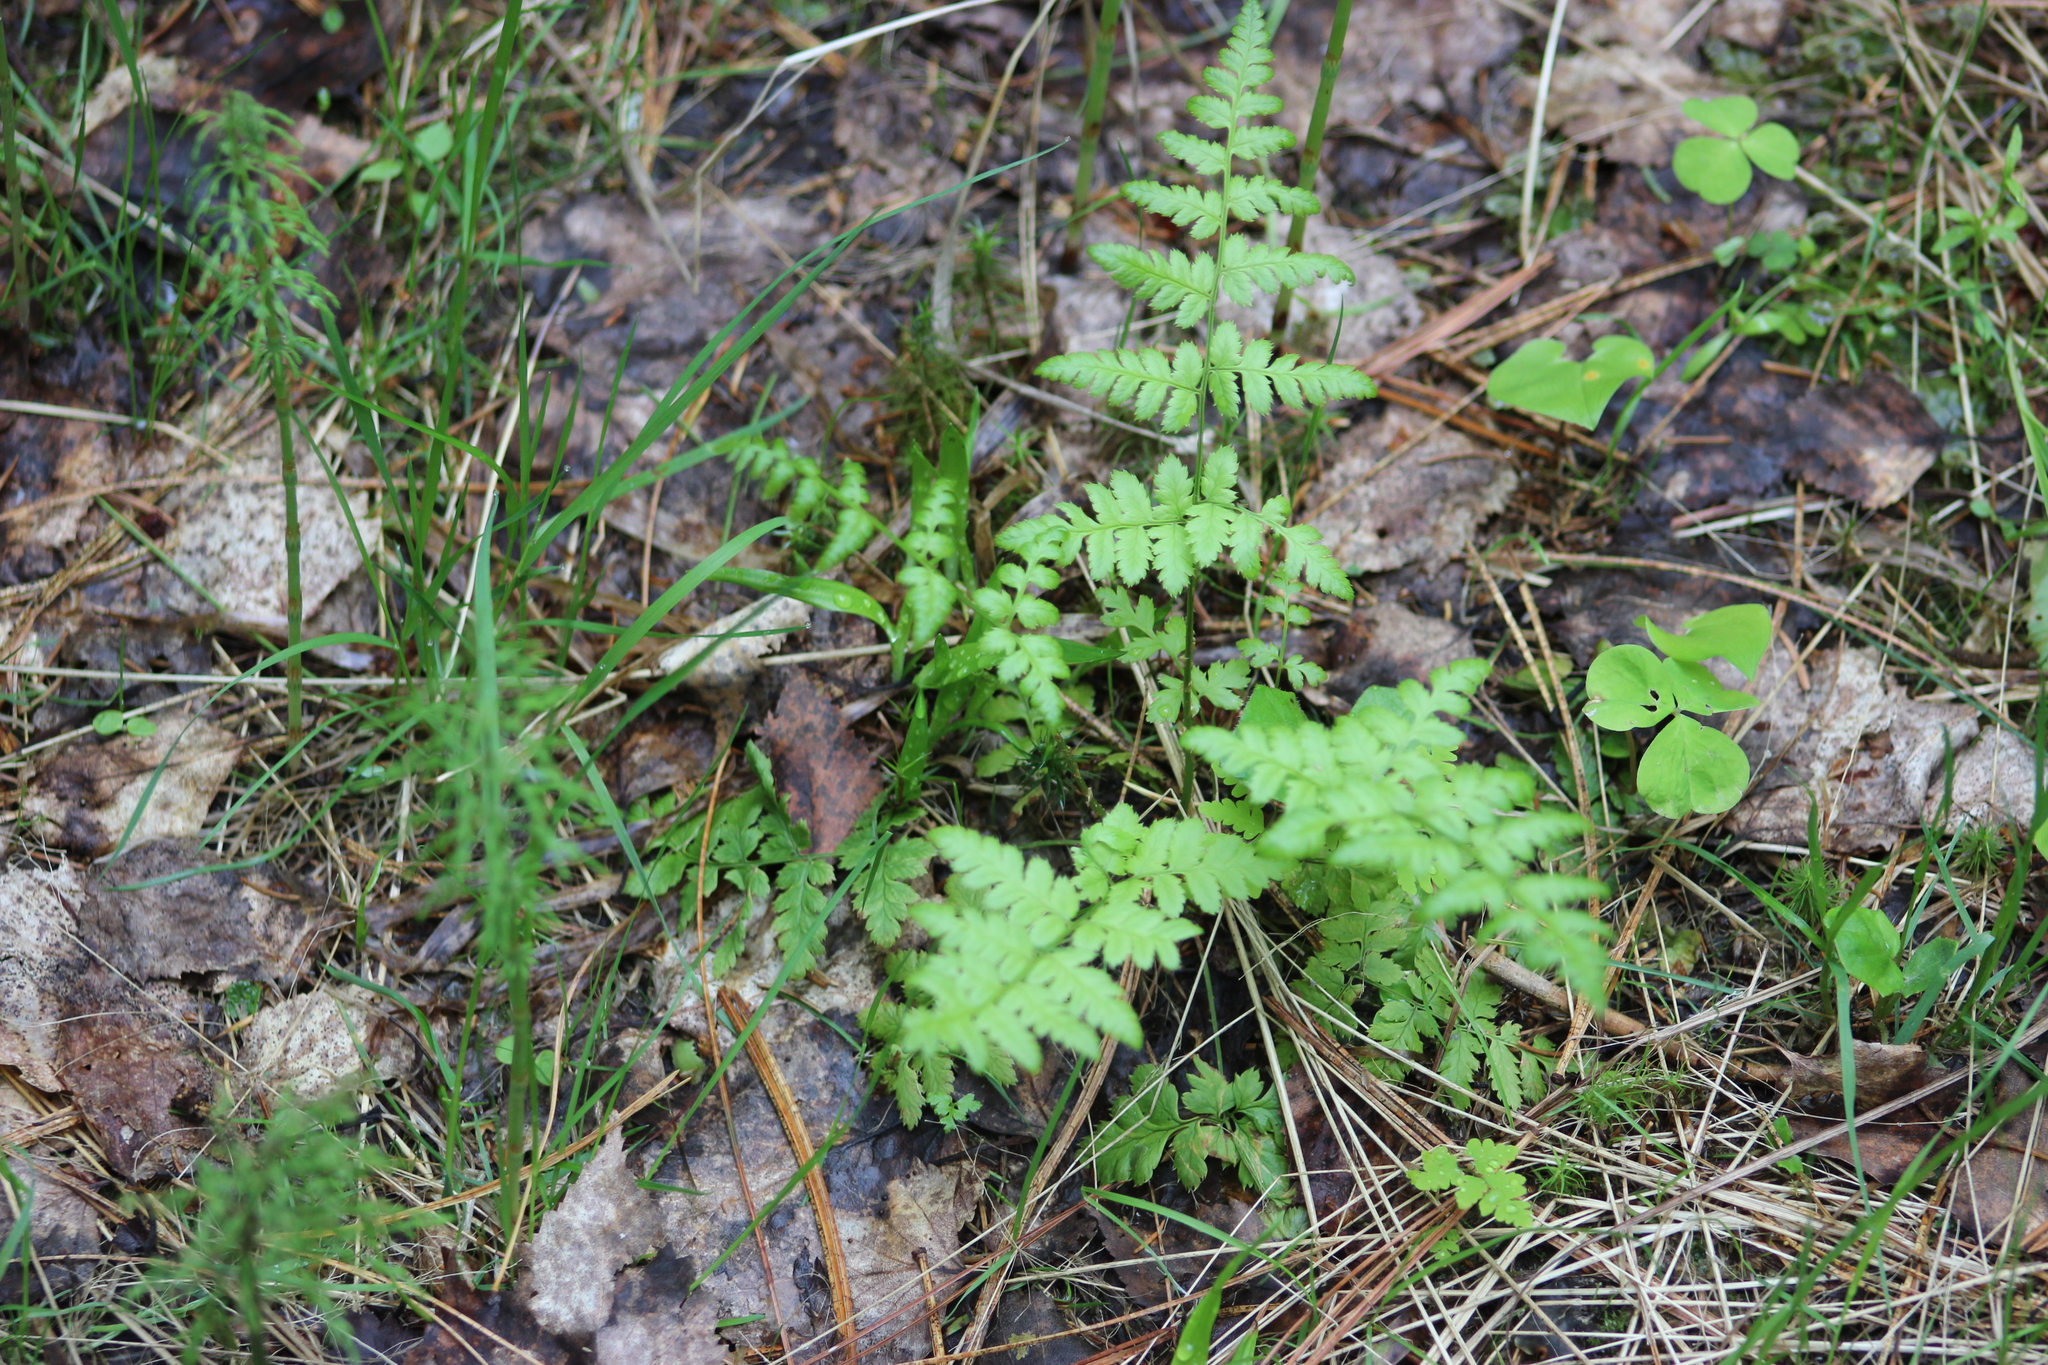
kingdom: Plantae
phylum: Tracheophyta
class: Polypodiopsida
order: Polypodiales
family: Dryopteridaceae
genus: Dryopteris
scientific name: Dryopteris carthusiana
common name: Narrow buckler-fern
